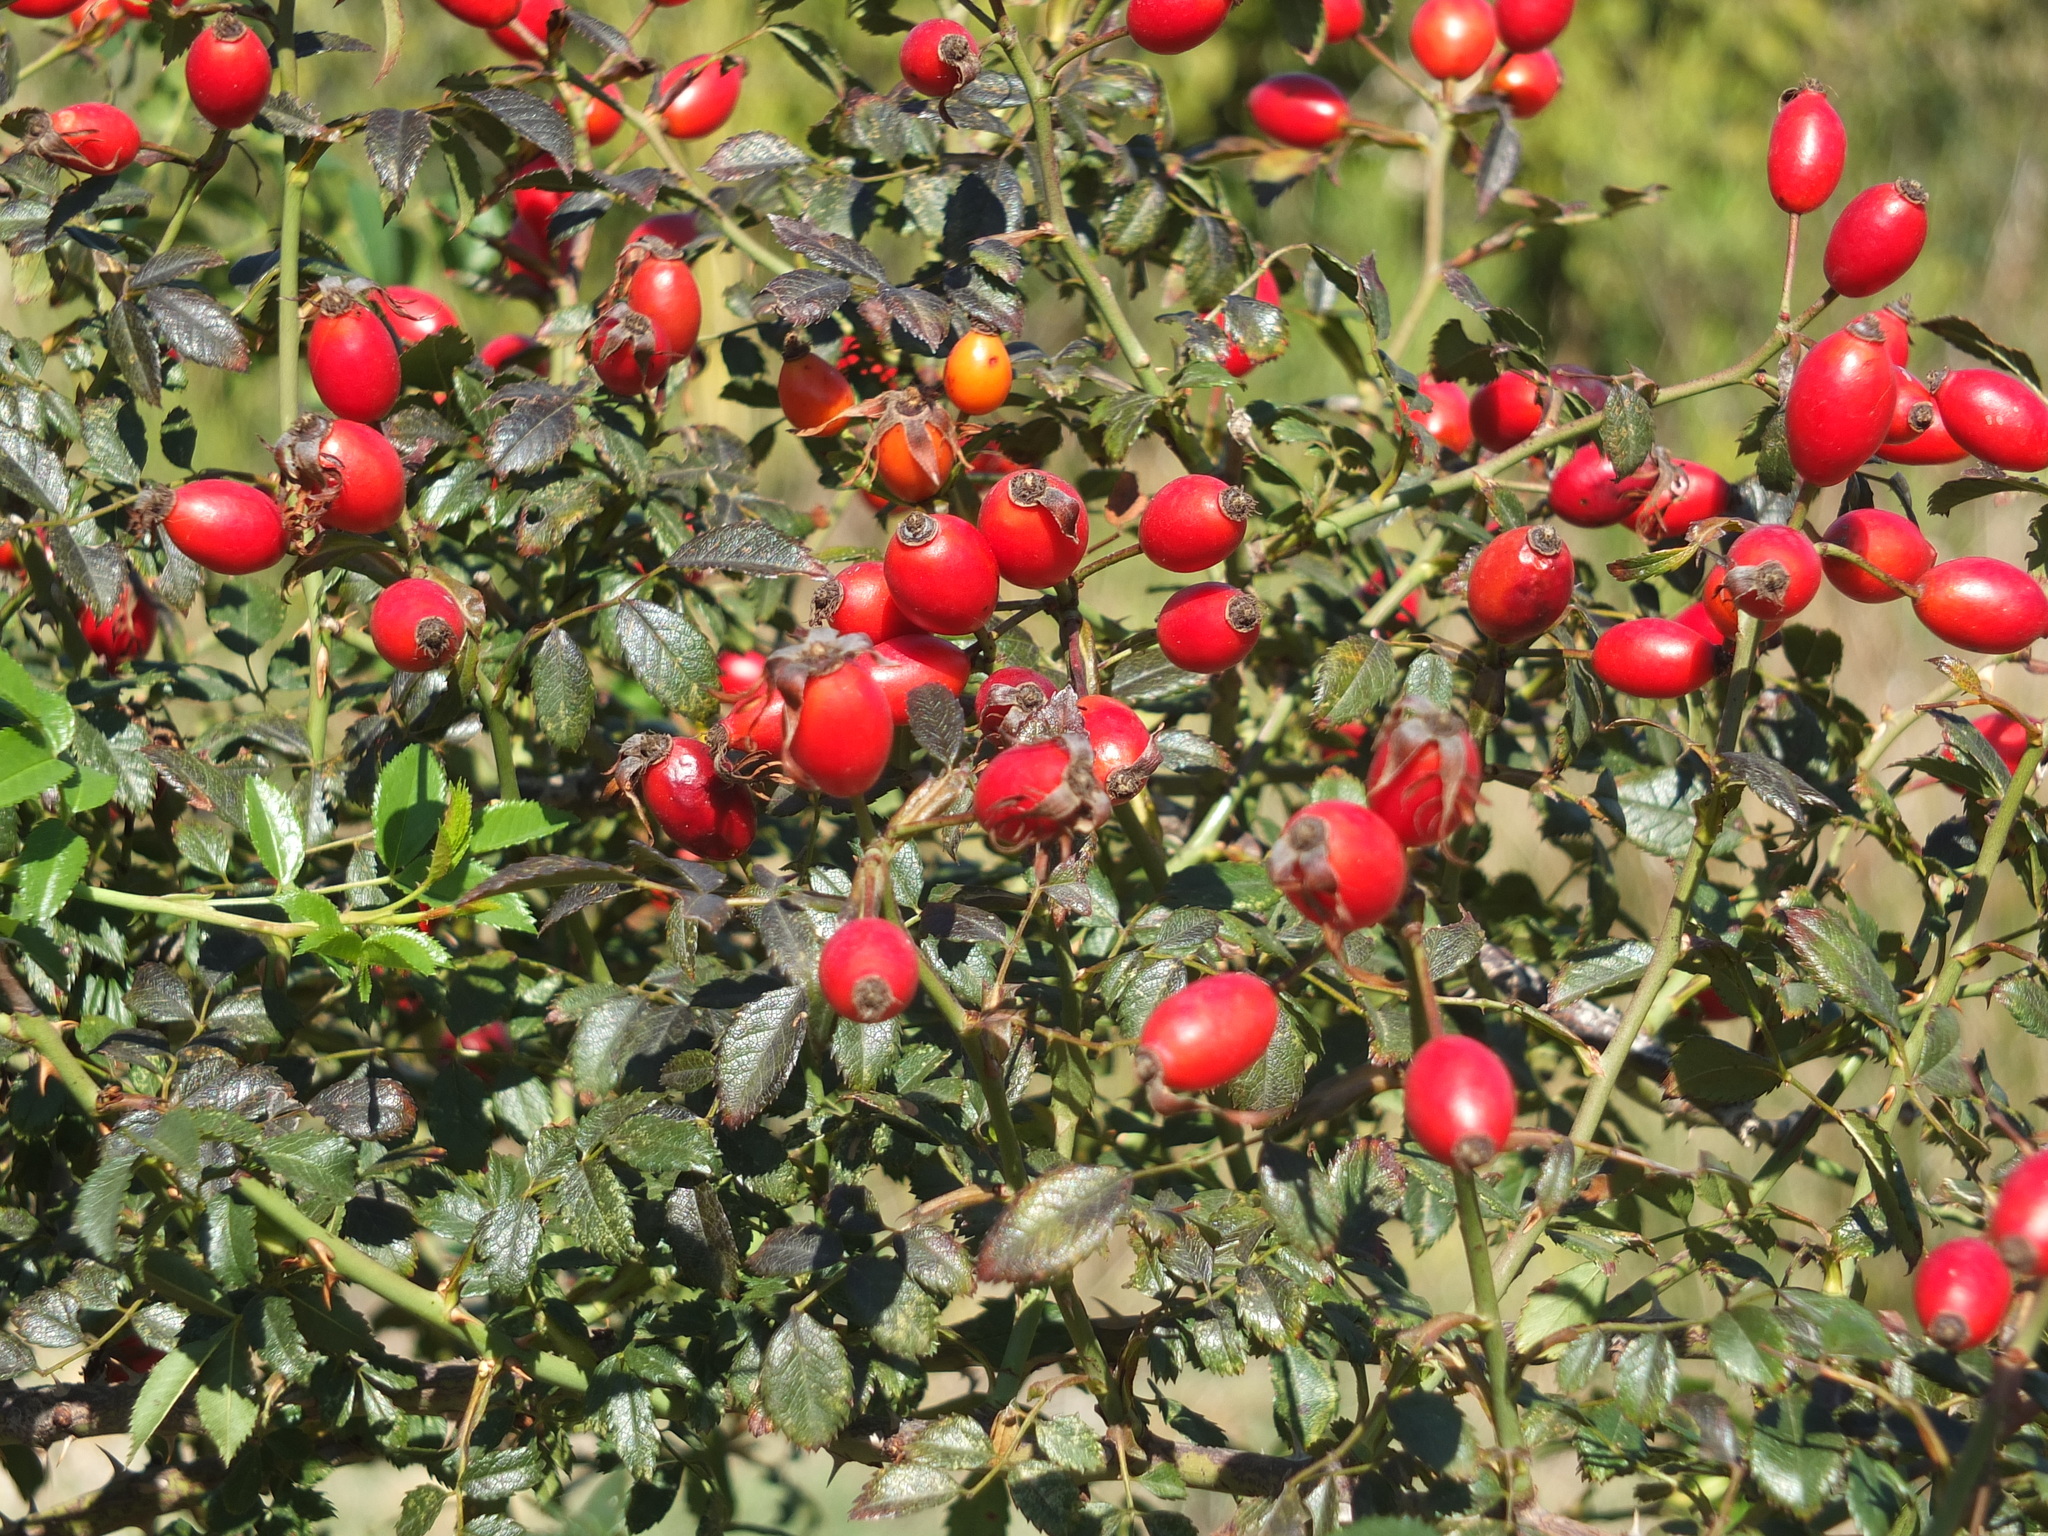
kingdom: Plantae
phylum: Tracheophyta
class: Magnoliopsida
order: Rosales
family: Rosaceae
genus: Rosa
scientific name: Rosa canina
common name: Dog rose
